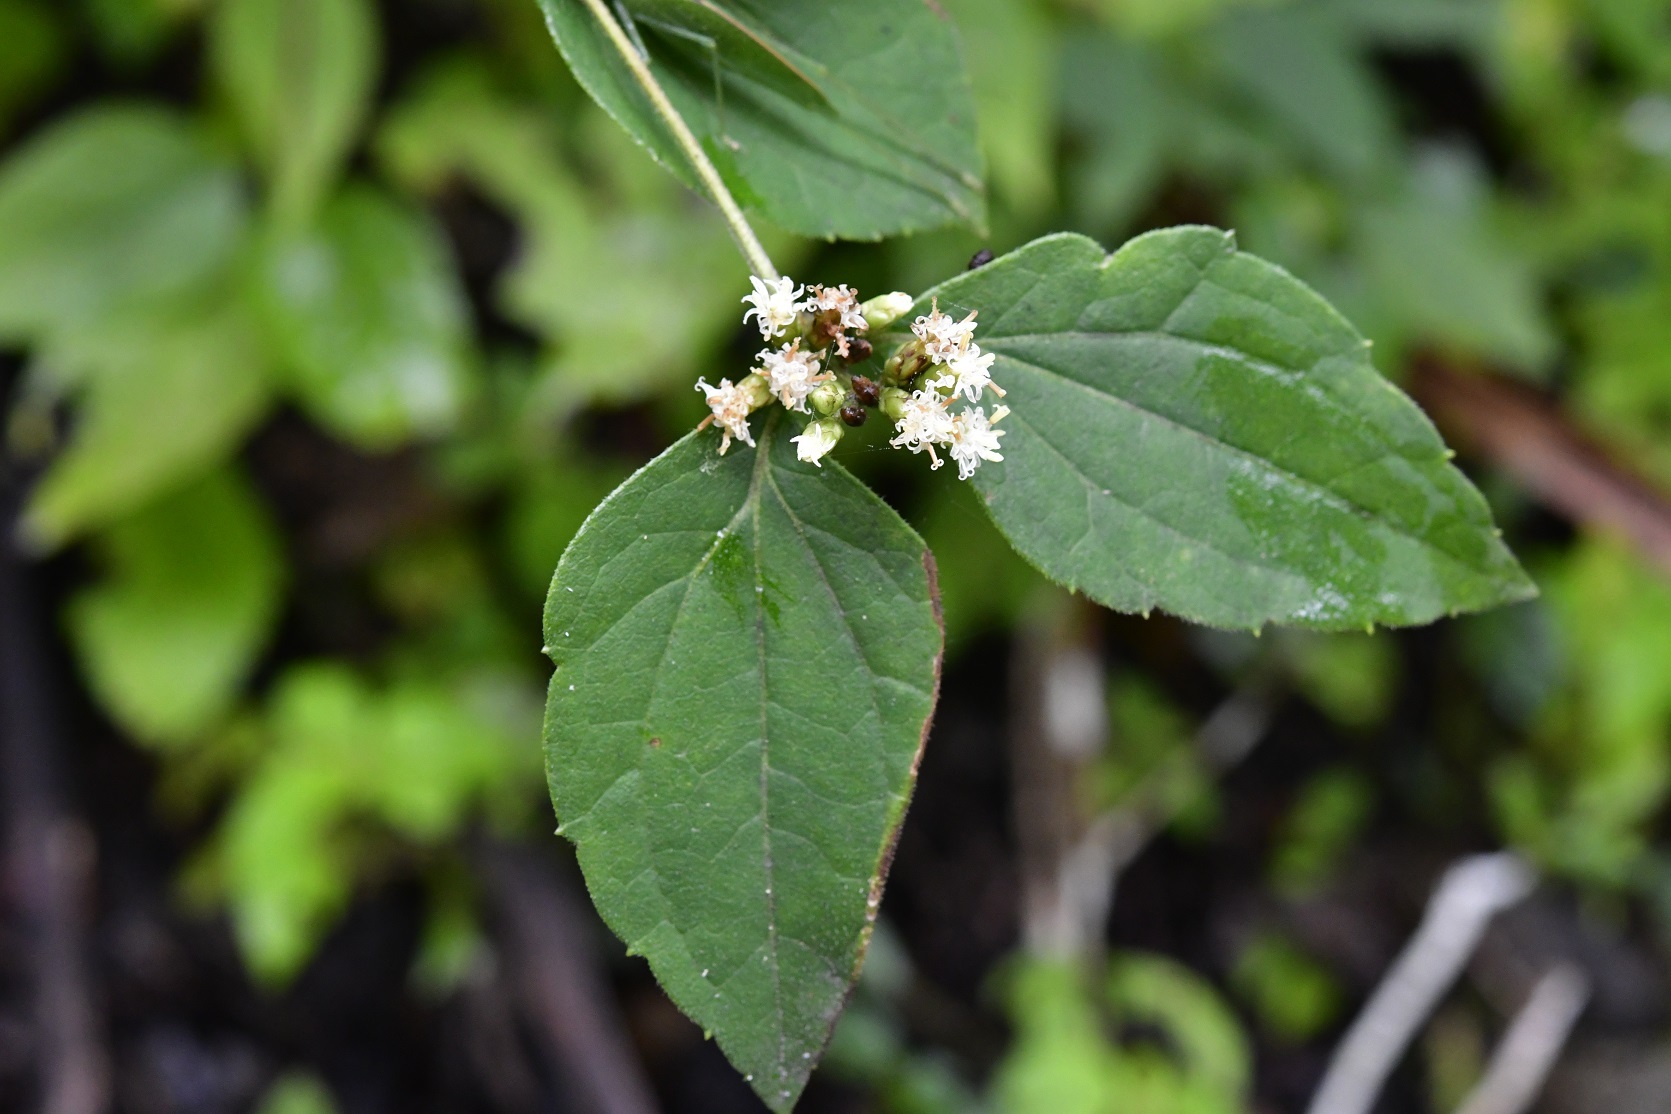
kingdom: Plantae
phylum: Tracheophyta
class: Magnoliopsida
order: Asterales
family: Asteraceae
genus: Calea
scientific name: Calea ternifolia
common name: Mexican calea
